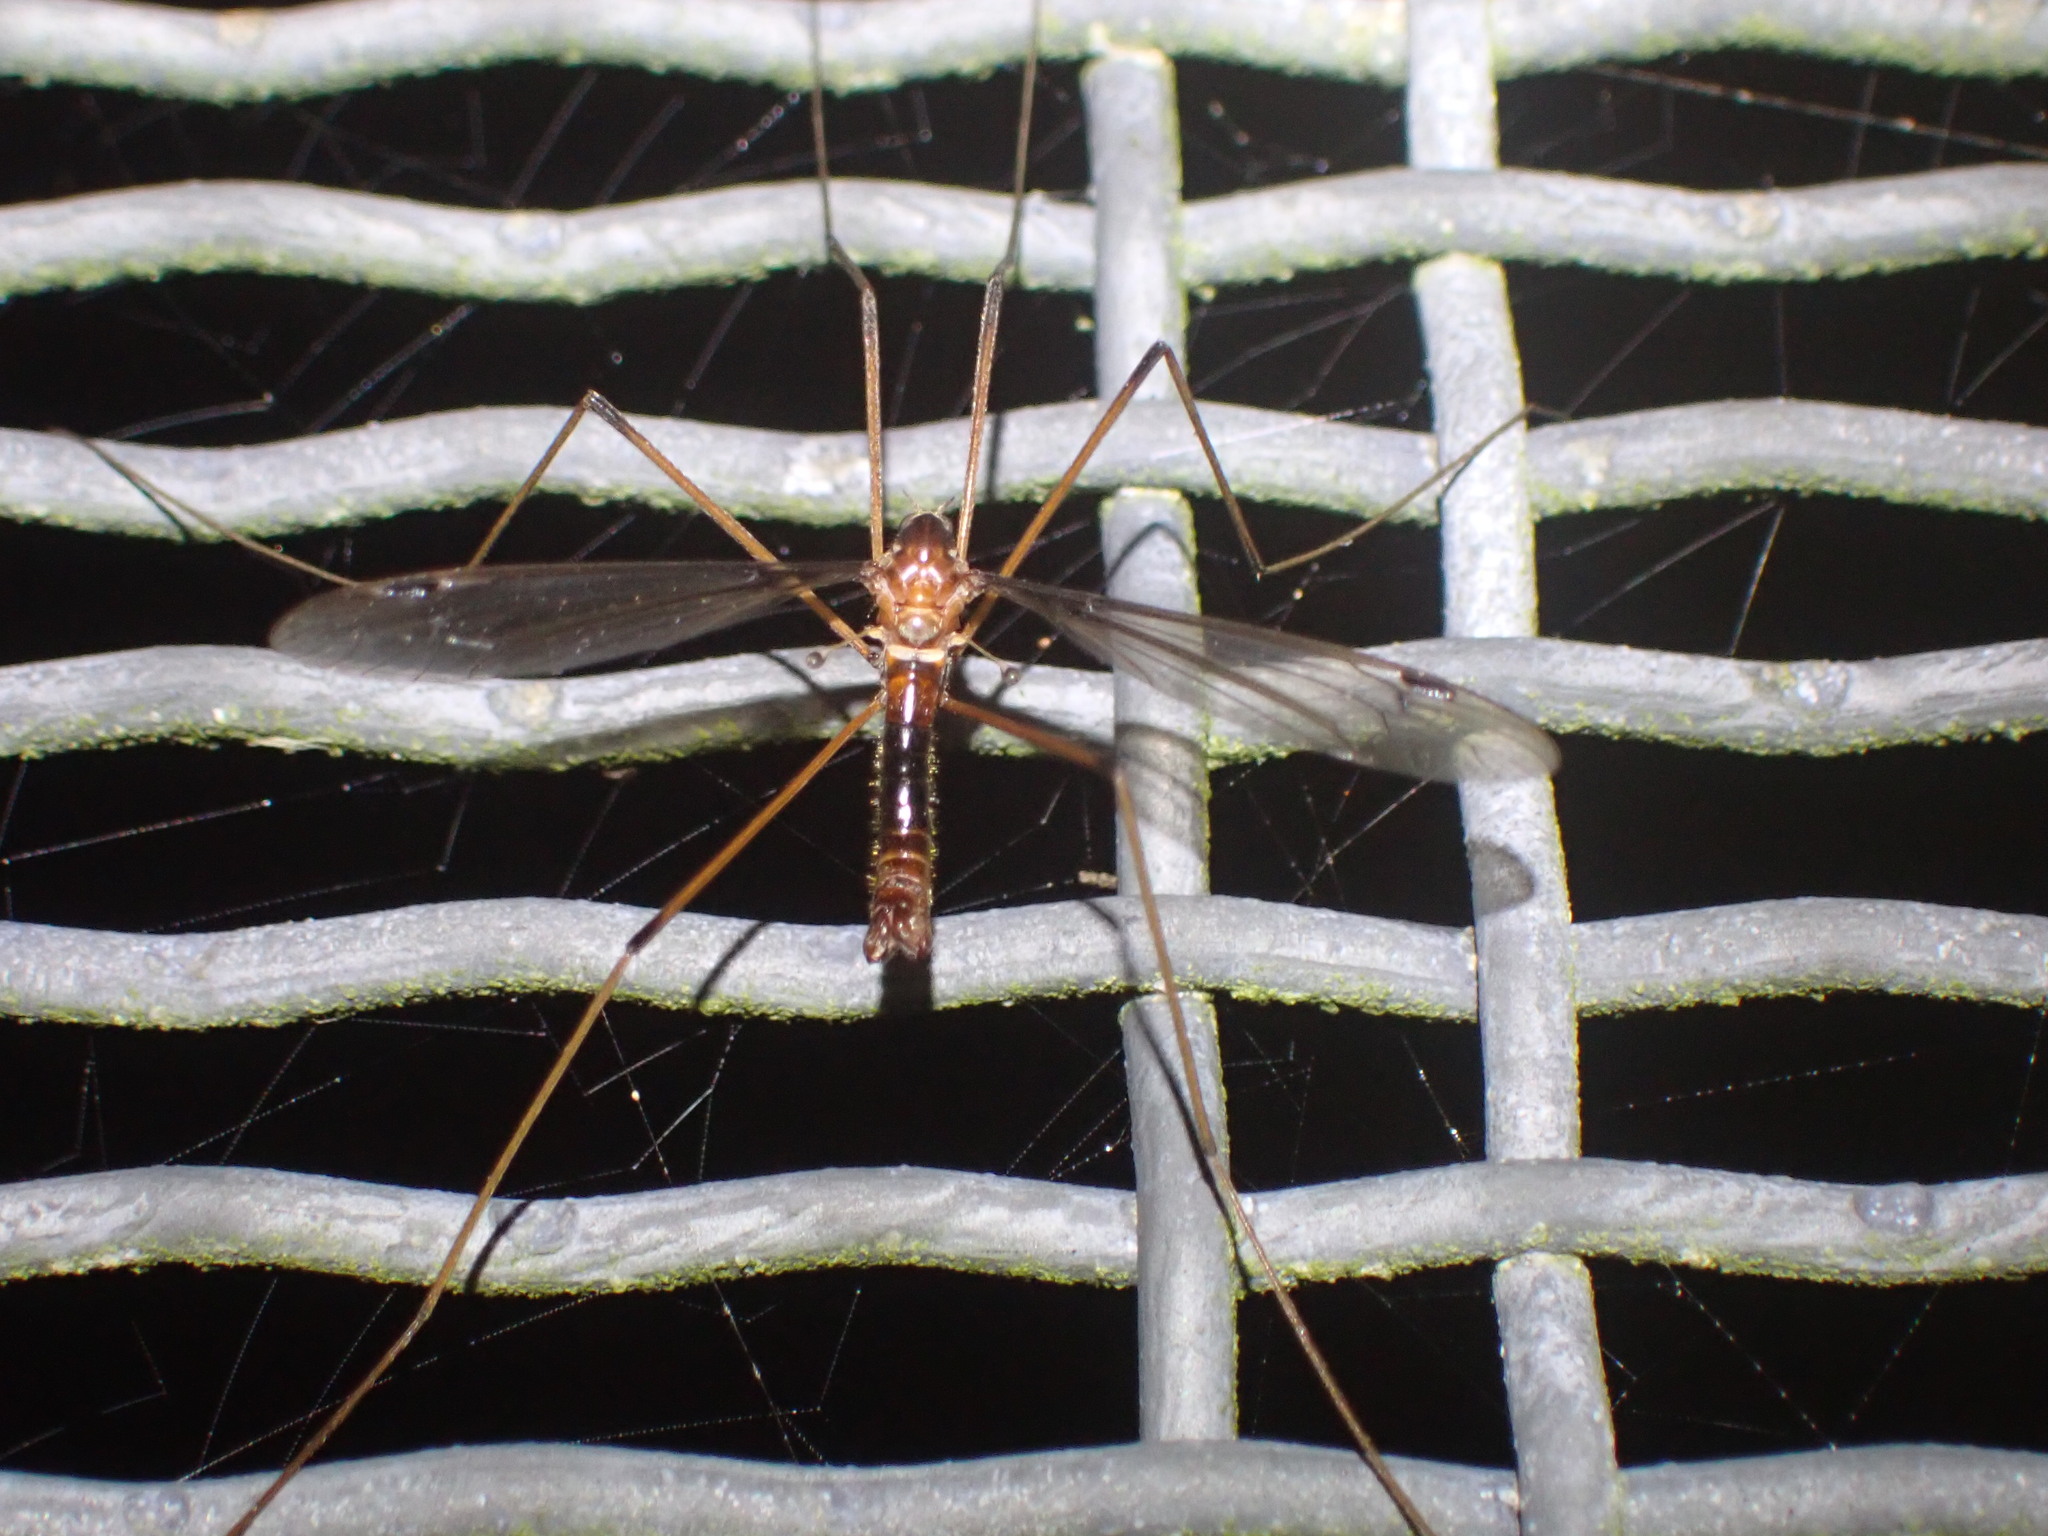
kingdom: Animalia
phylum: Arthropoda
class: Insecta
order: Diptera
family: Tipulidae
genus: Leptotarsus
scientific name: Leptotarsus heterogamus
